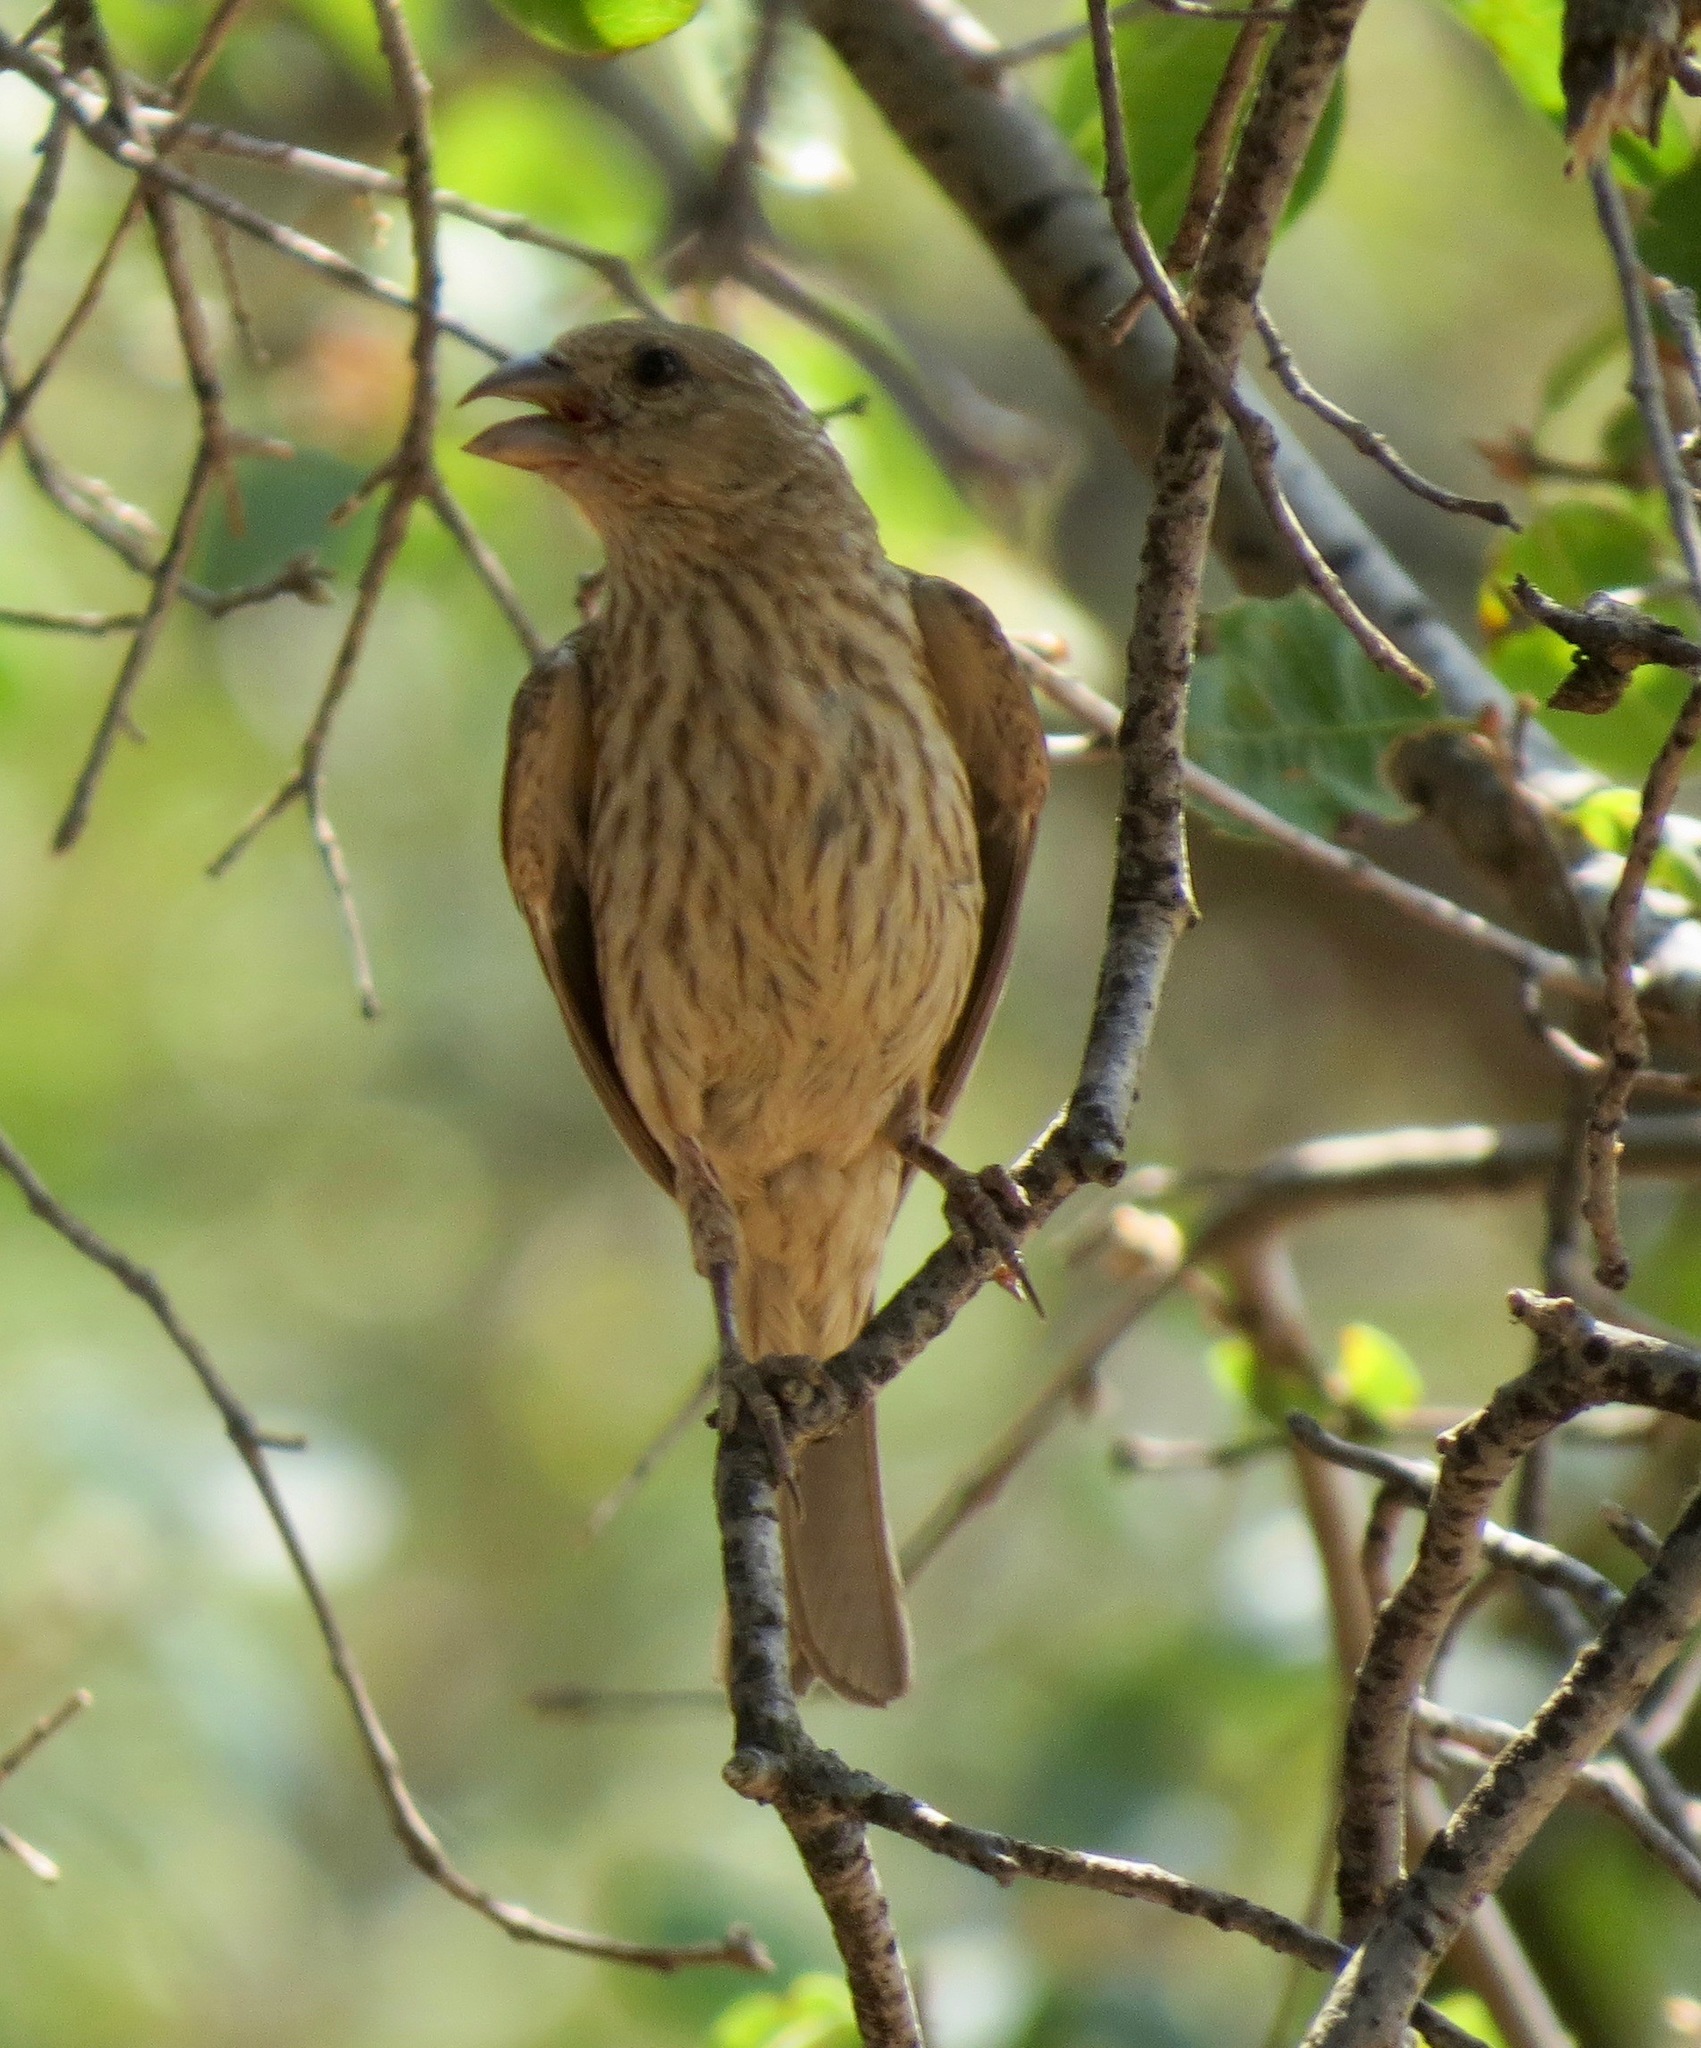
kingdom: Animalia
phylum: Chordata
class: Aves
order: Passeriformes
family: Fringillidae
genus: Haemorhous
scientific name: Haemorhous mexicanus
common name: House finch
